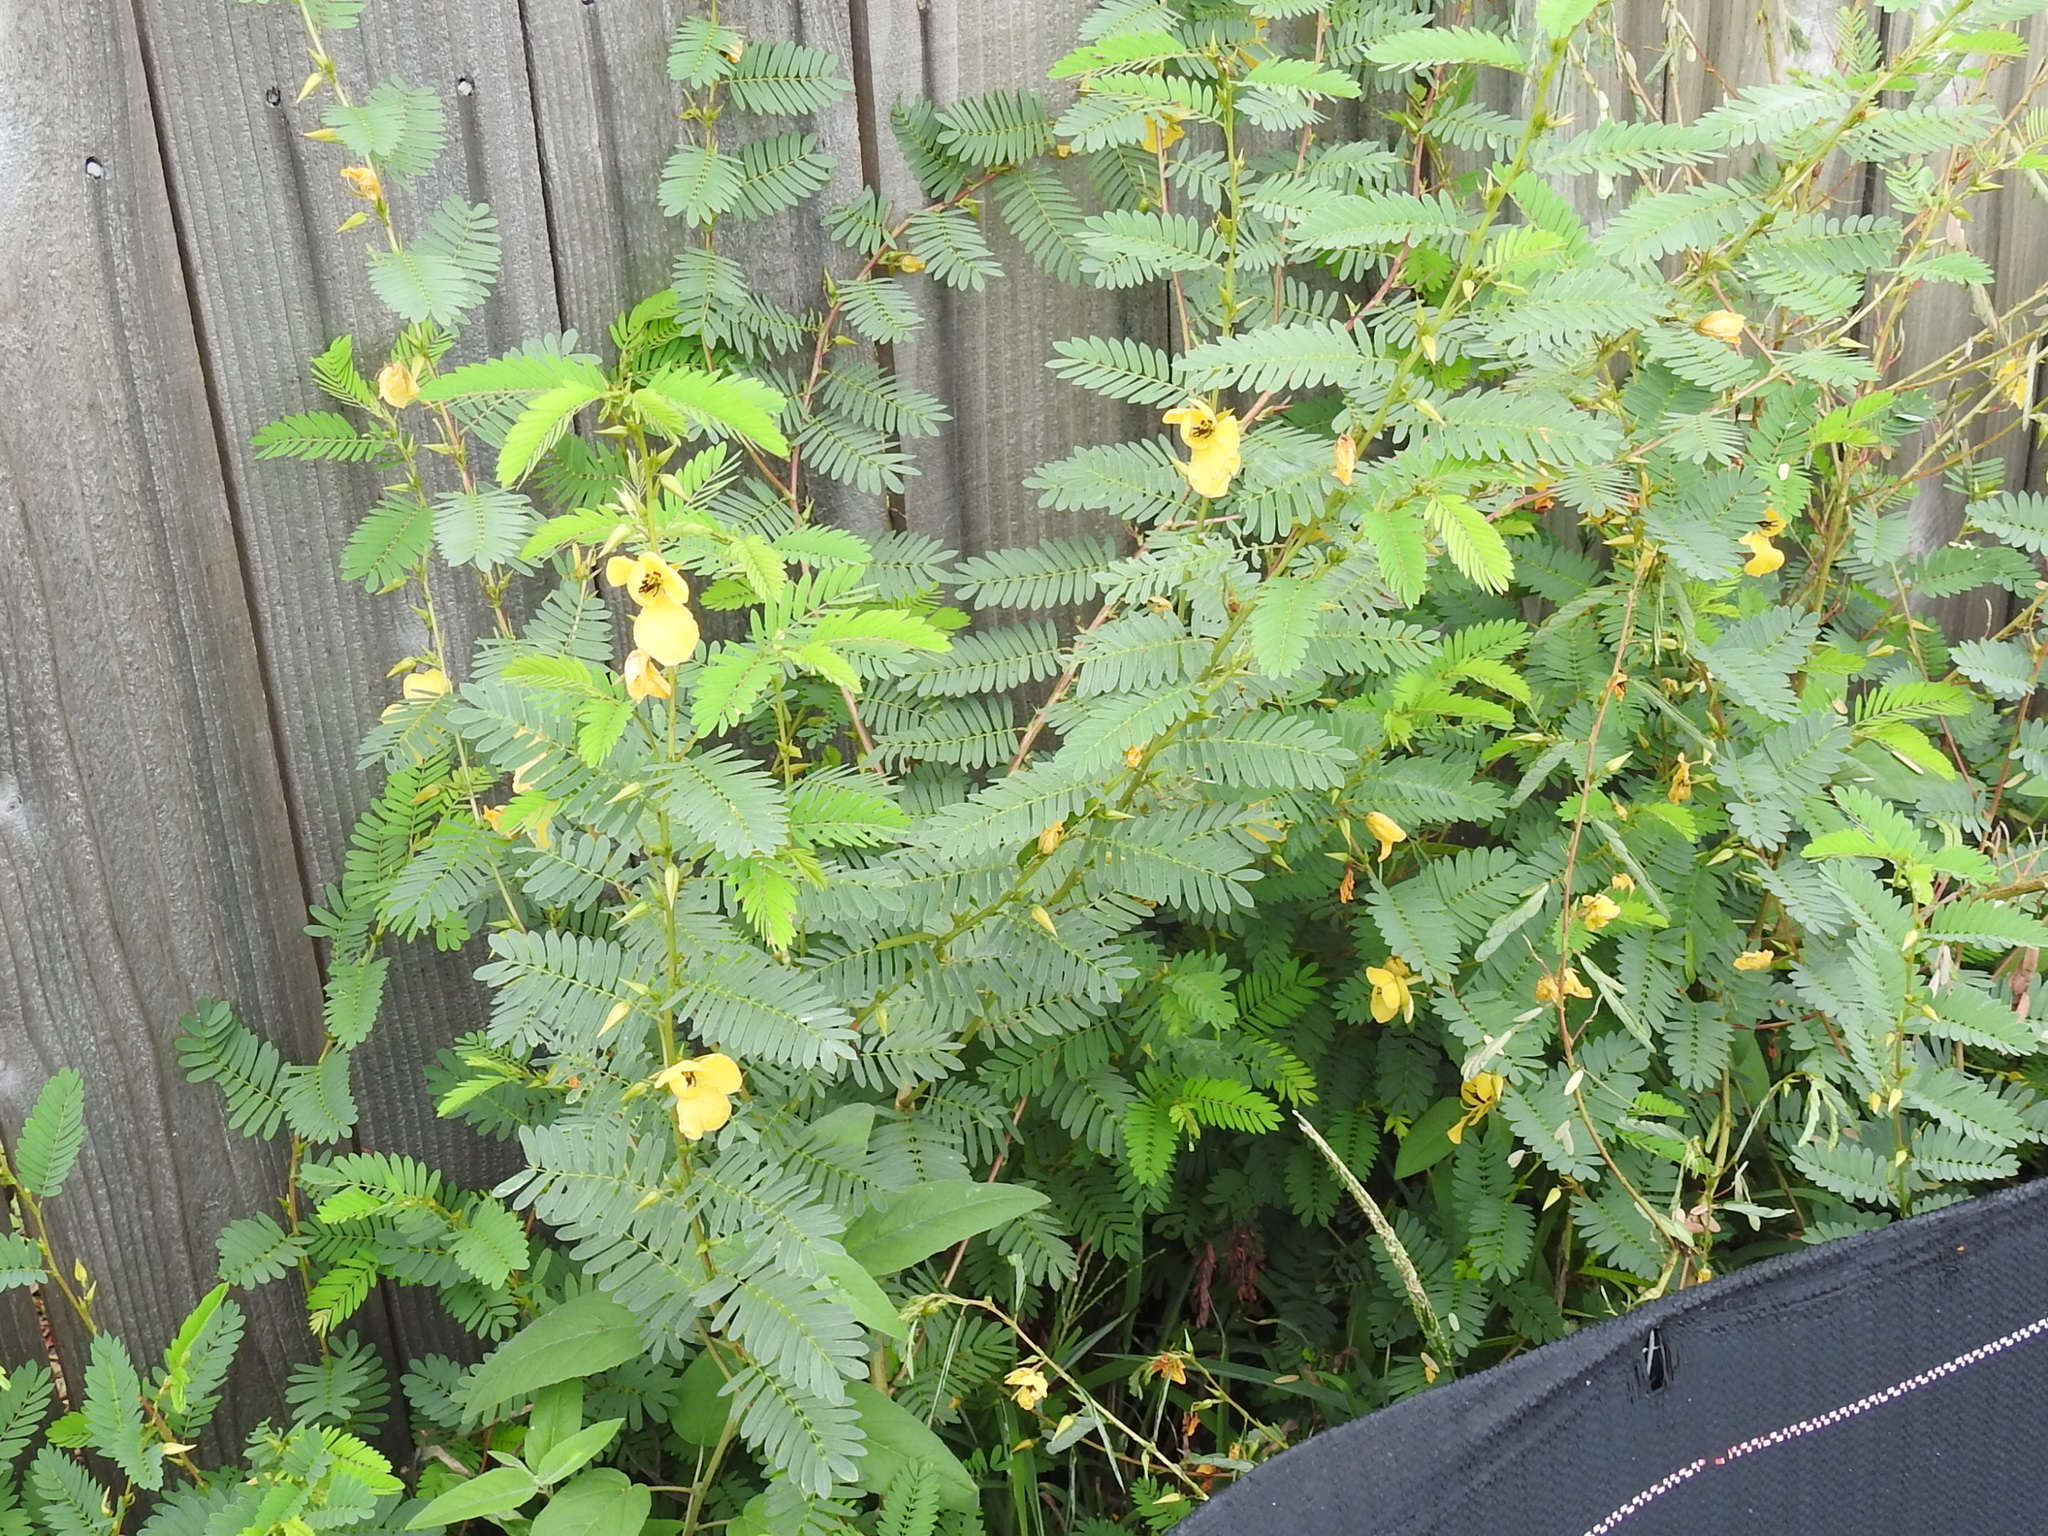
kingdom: Plantae
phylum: Tracheophyta
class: Magnoliopsida
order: Fabales
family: Fabaceae
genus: Chamaecrista
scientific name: Chamaecrista fasciculata
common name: Golden cassia
